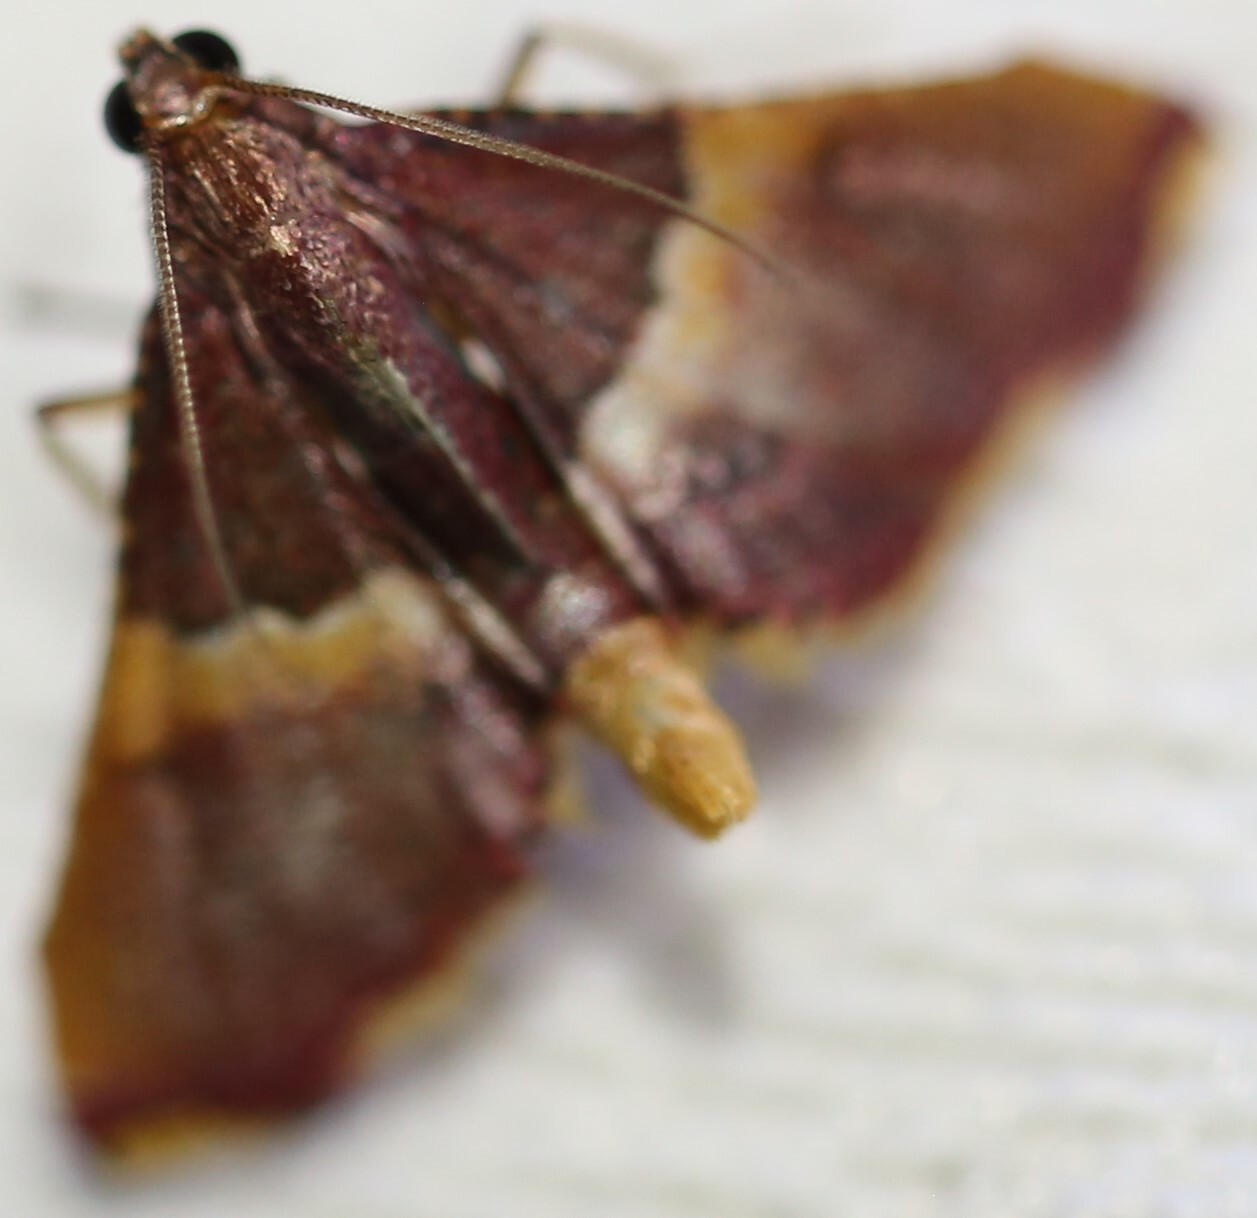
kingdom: Animalia
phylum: Arthropoda
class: Insecta
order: Lepidoptera
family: Pyralidae
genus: Endotricha
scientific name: Endotricha mesenterialis
